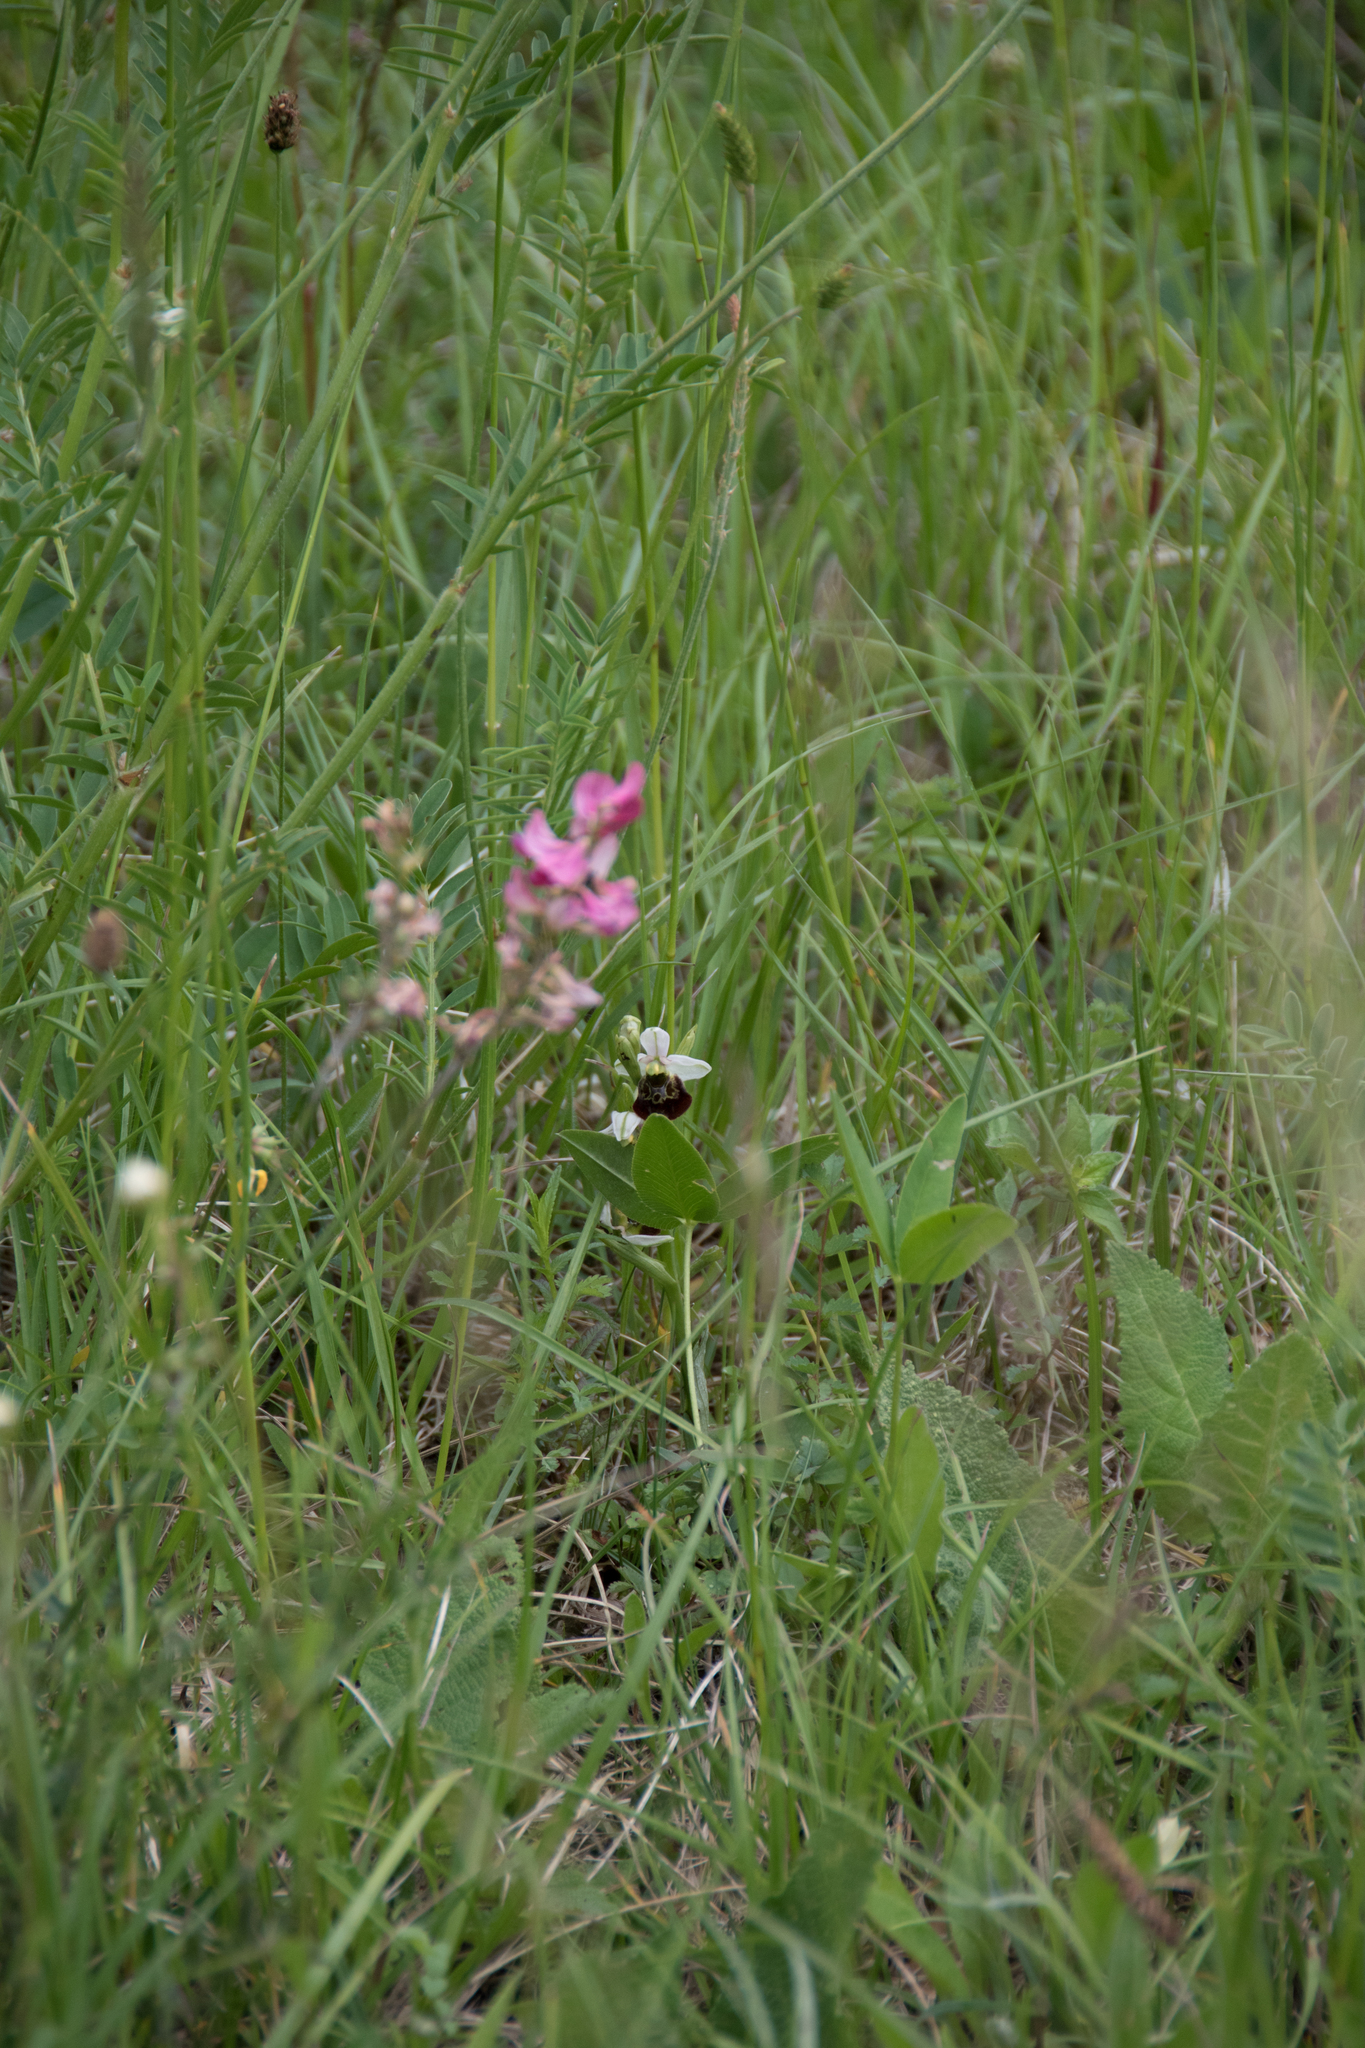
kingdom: Plantae
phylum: Tracheophyta
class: Liliopsida
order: Asparagales
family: Orchidaceae
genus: Ophrys
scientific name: Ophrys holosericea
